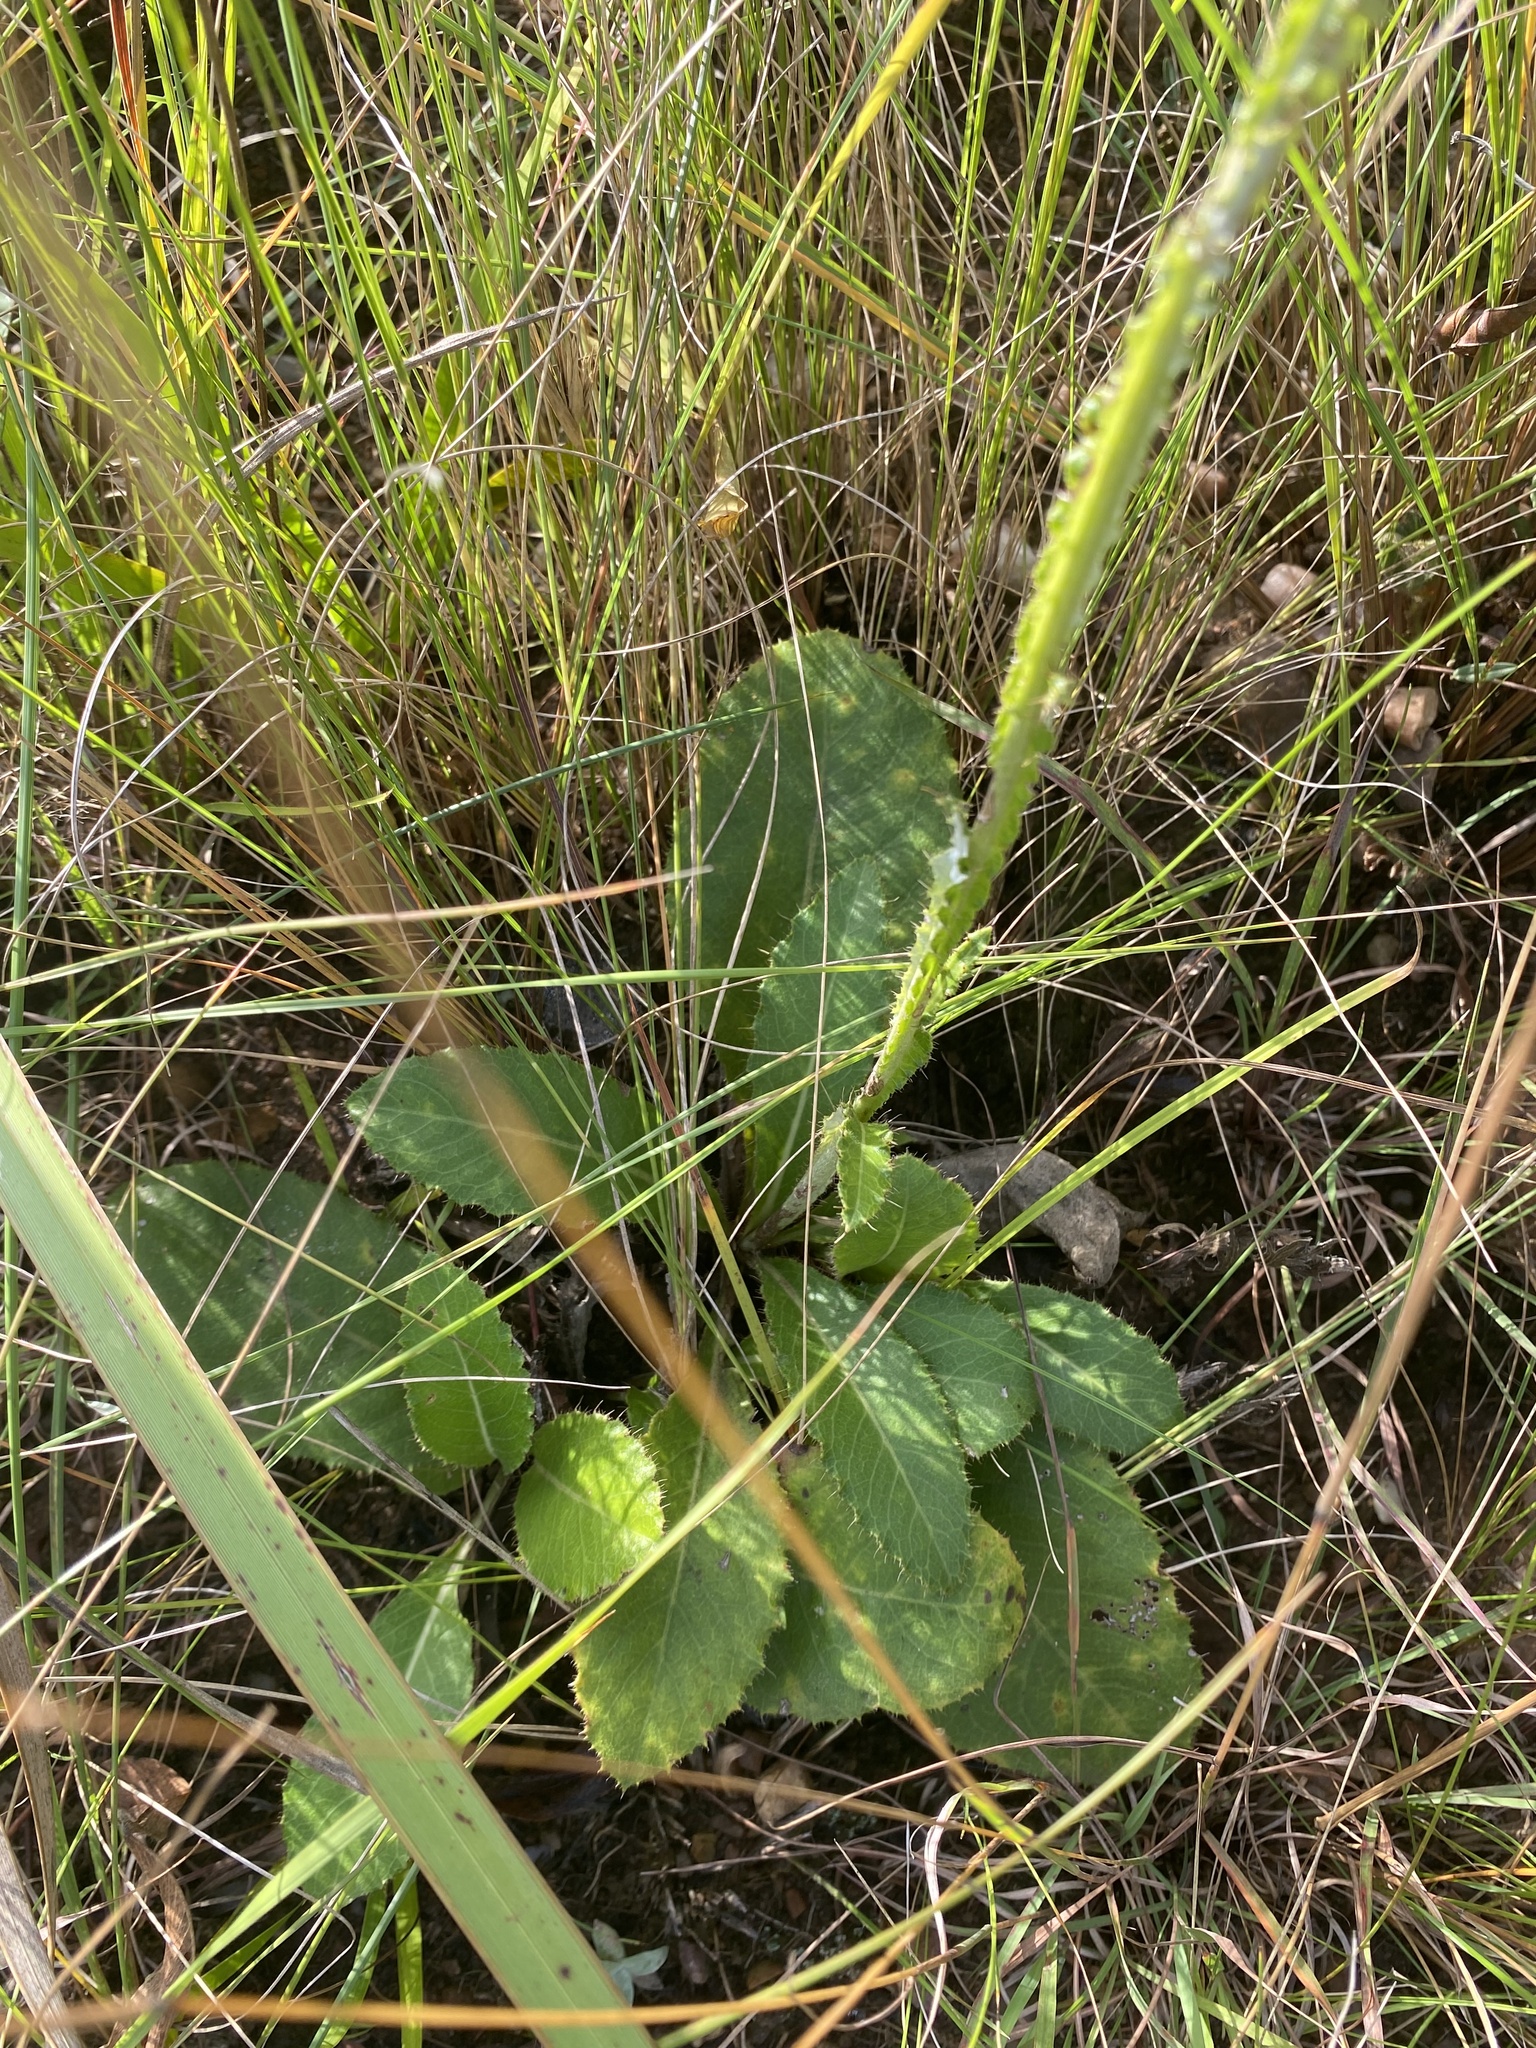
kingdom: Plantae
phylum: Tracheophyta
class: Magnoliopsida
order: Asterales
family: Asteraceae
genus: Berkheya
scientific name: Berkheya rhapontica
